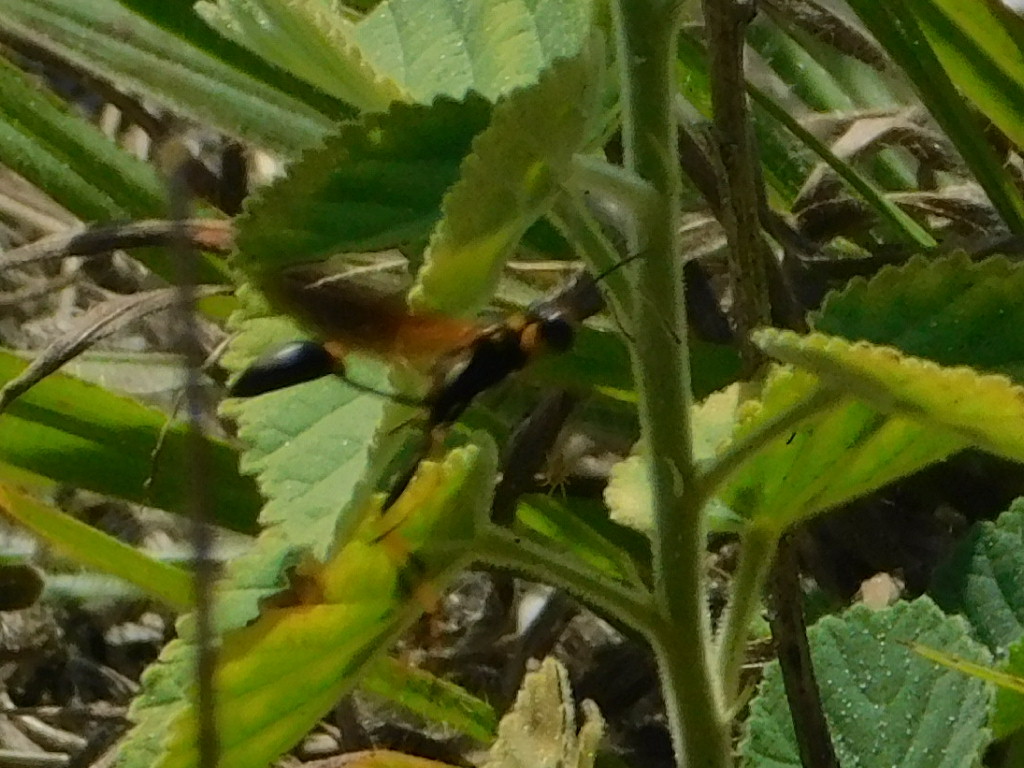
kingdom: Animalia
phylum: Arthropoda
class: Insecta
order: Hymenoptera
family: Sphecidae
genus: Sceliphron
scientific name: Sceliphron caementarium
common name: Mud dauber
